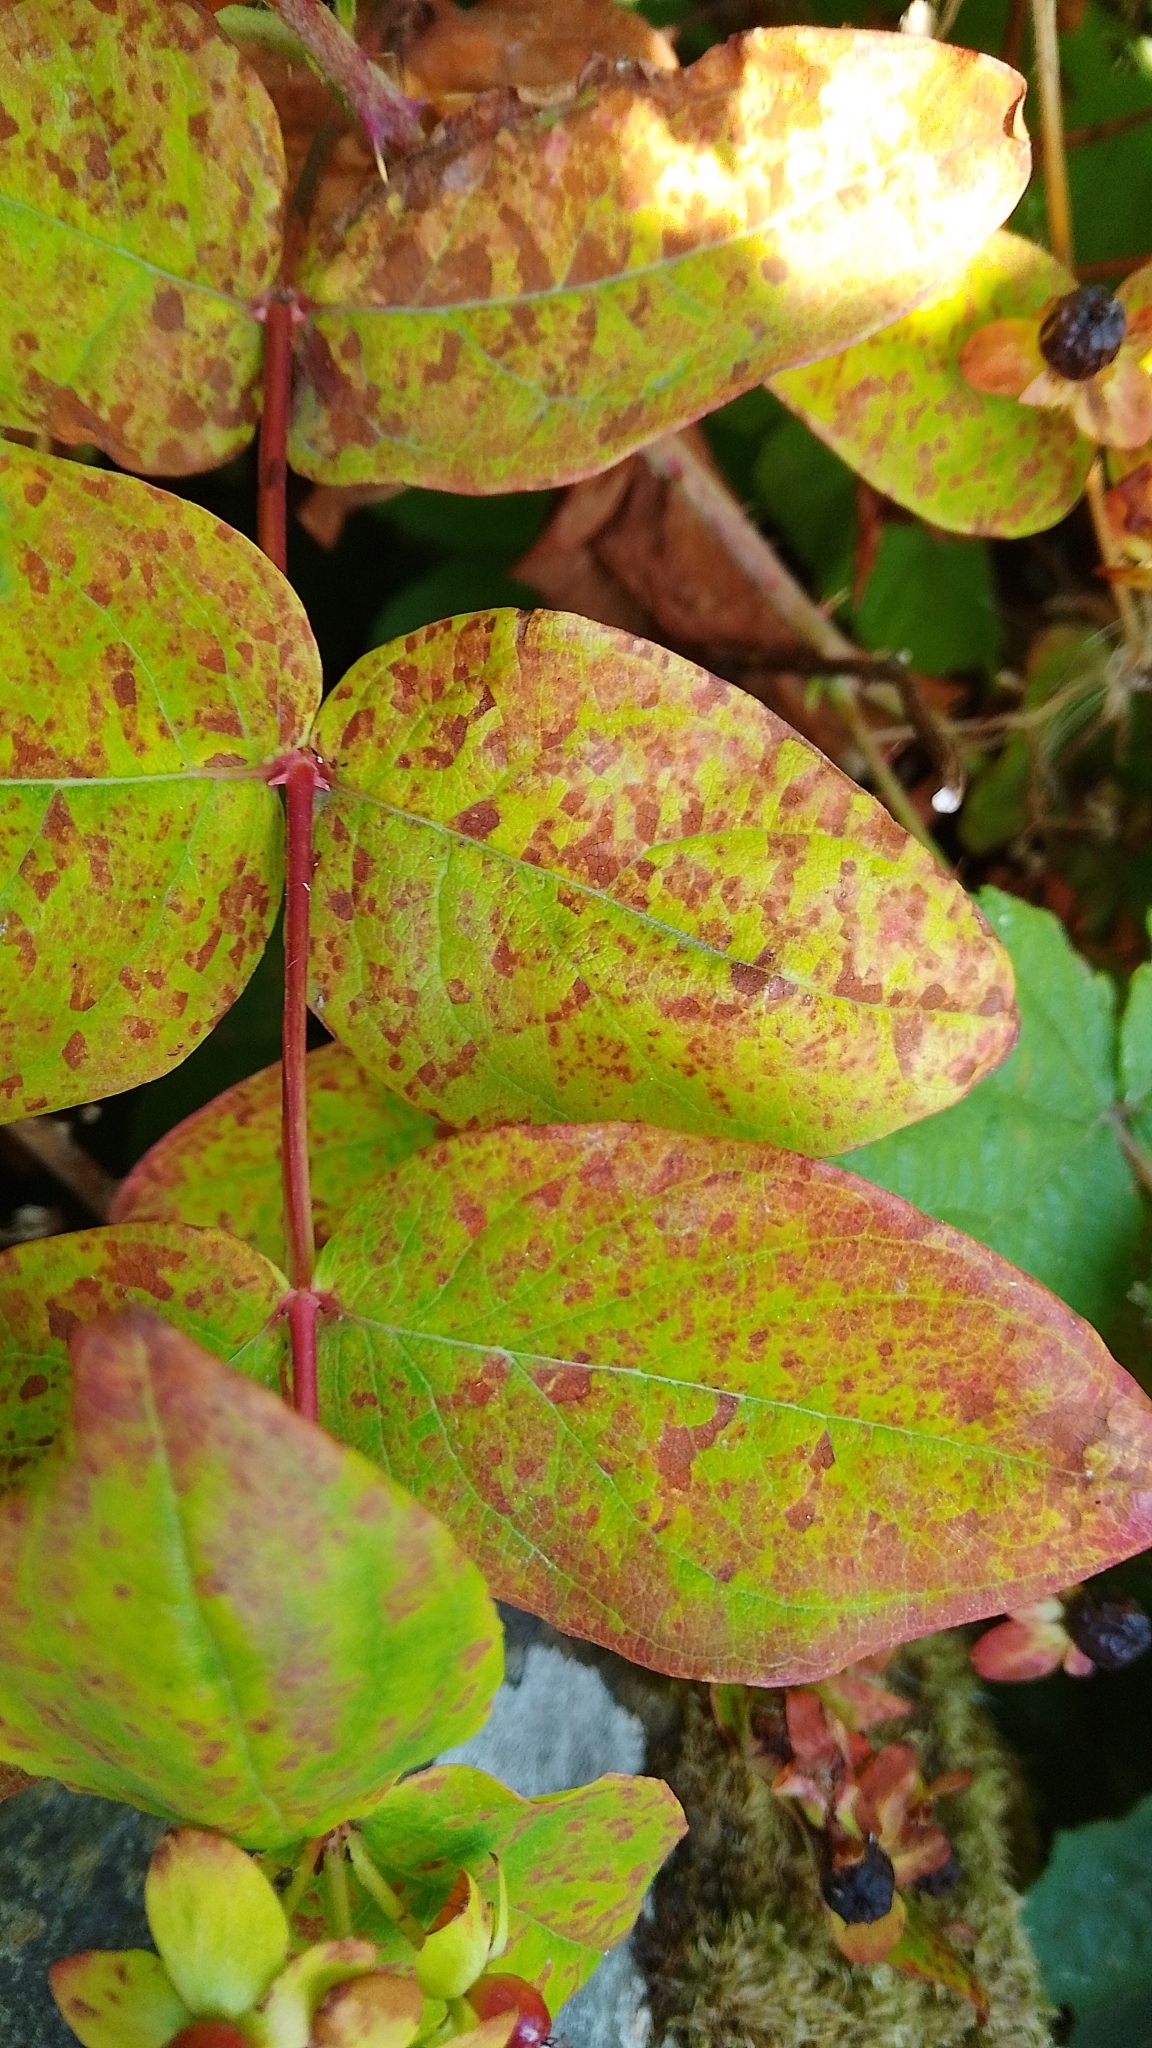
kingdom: Fungi
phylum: Basidiomycota
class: Pucciniomycetes
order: Pucciniales
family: Melampsoraceae
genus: Melampsora
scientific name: Melampsora
